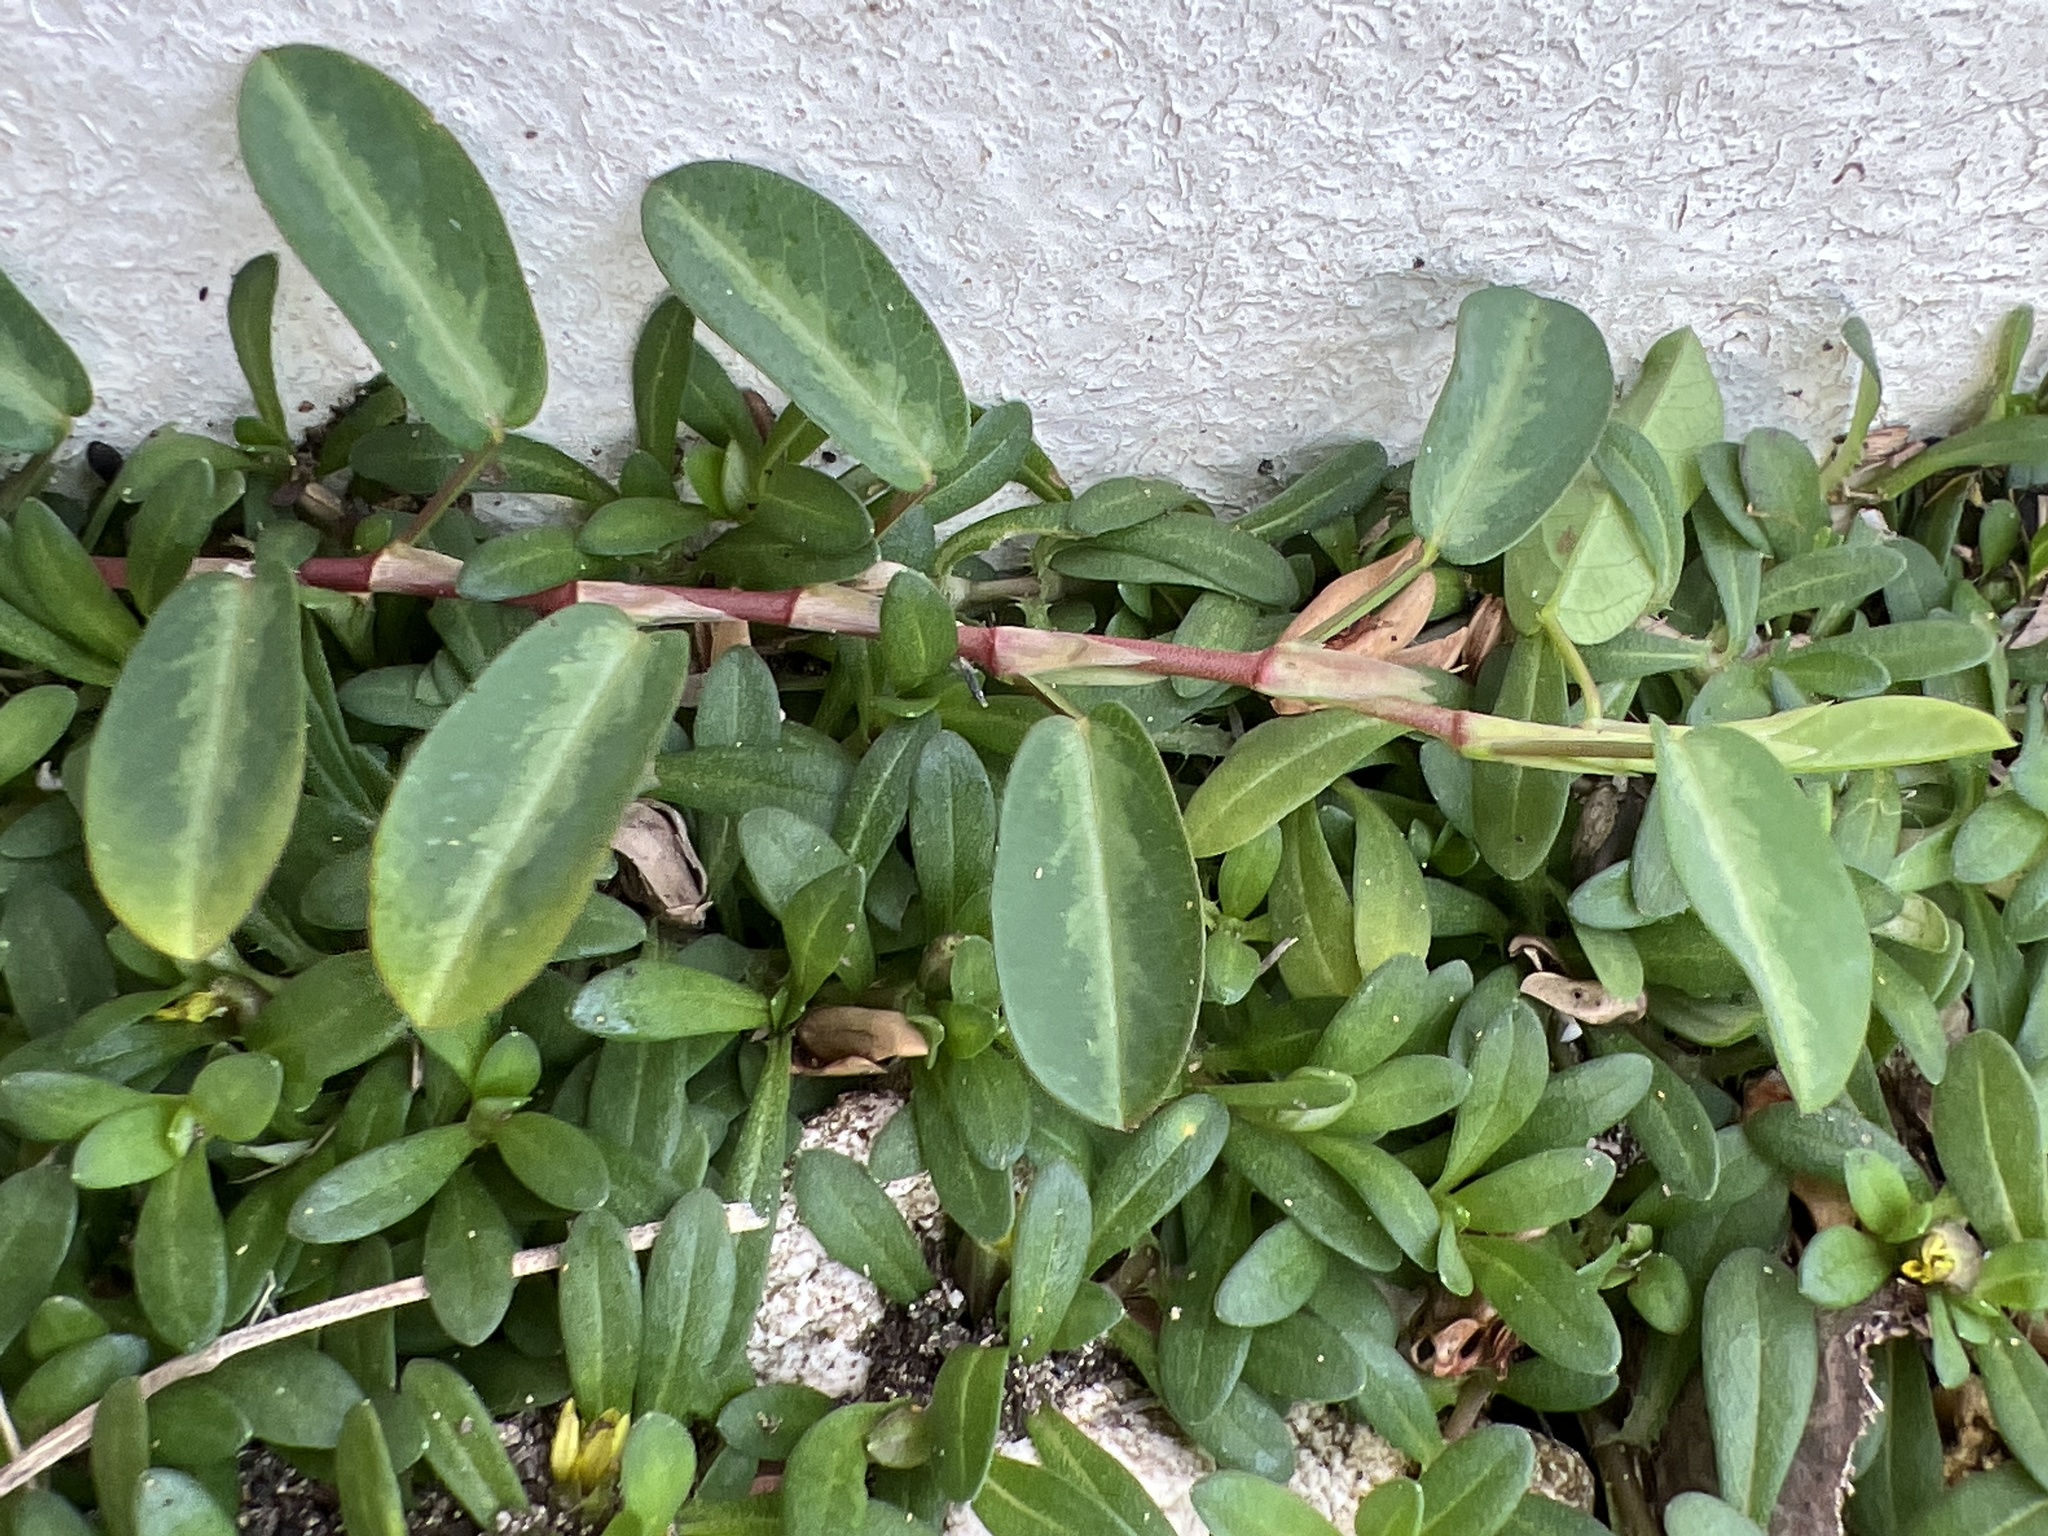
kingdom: Plantae
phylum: Tracheophyta
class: Magnoliopsida
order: Fabales
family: Fabaceae
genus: Alysicarpus
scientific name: Alysicarpus vaginalis
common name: White moneywort
